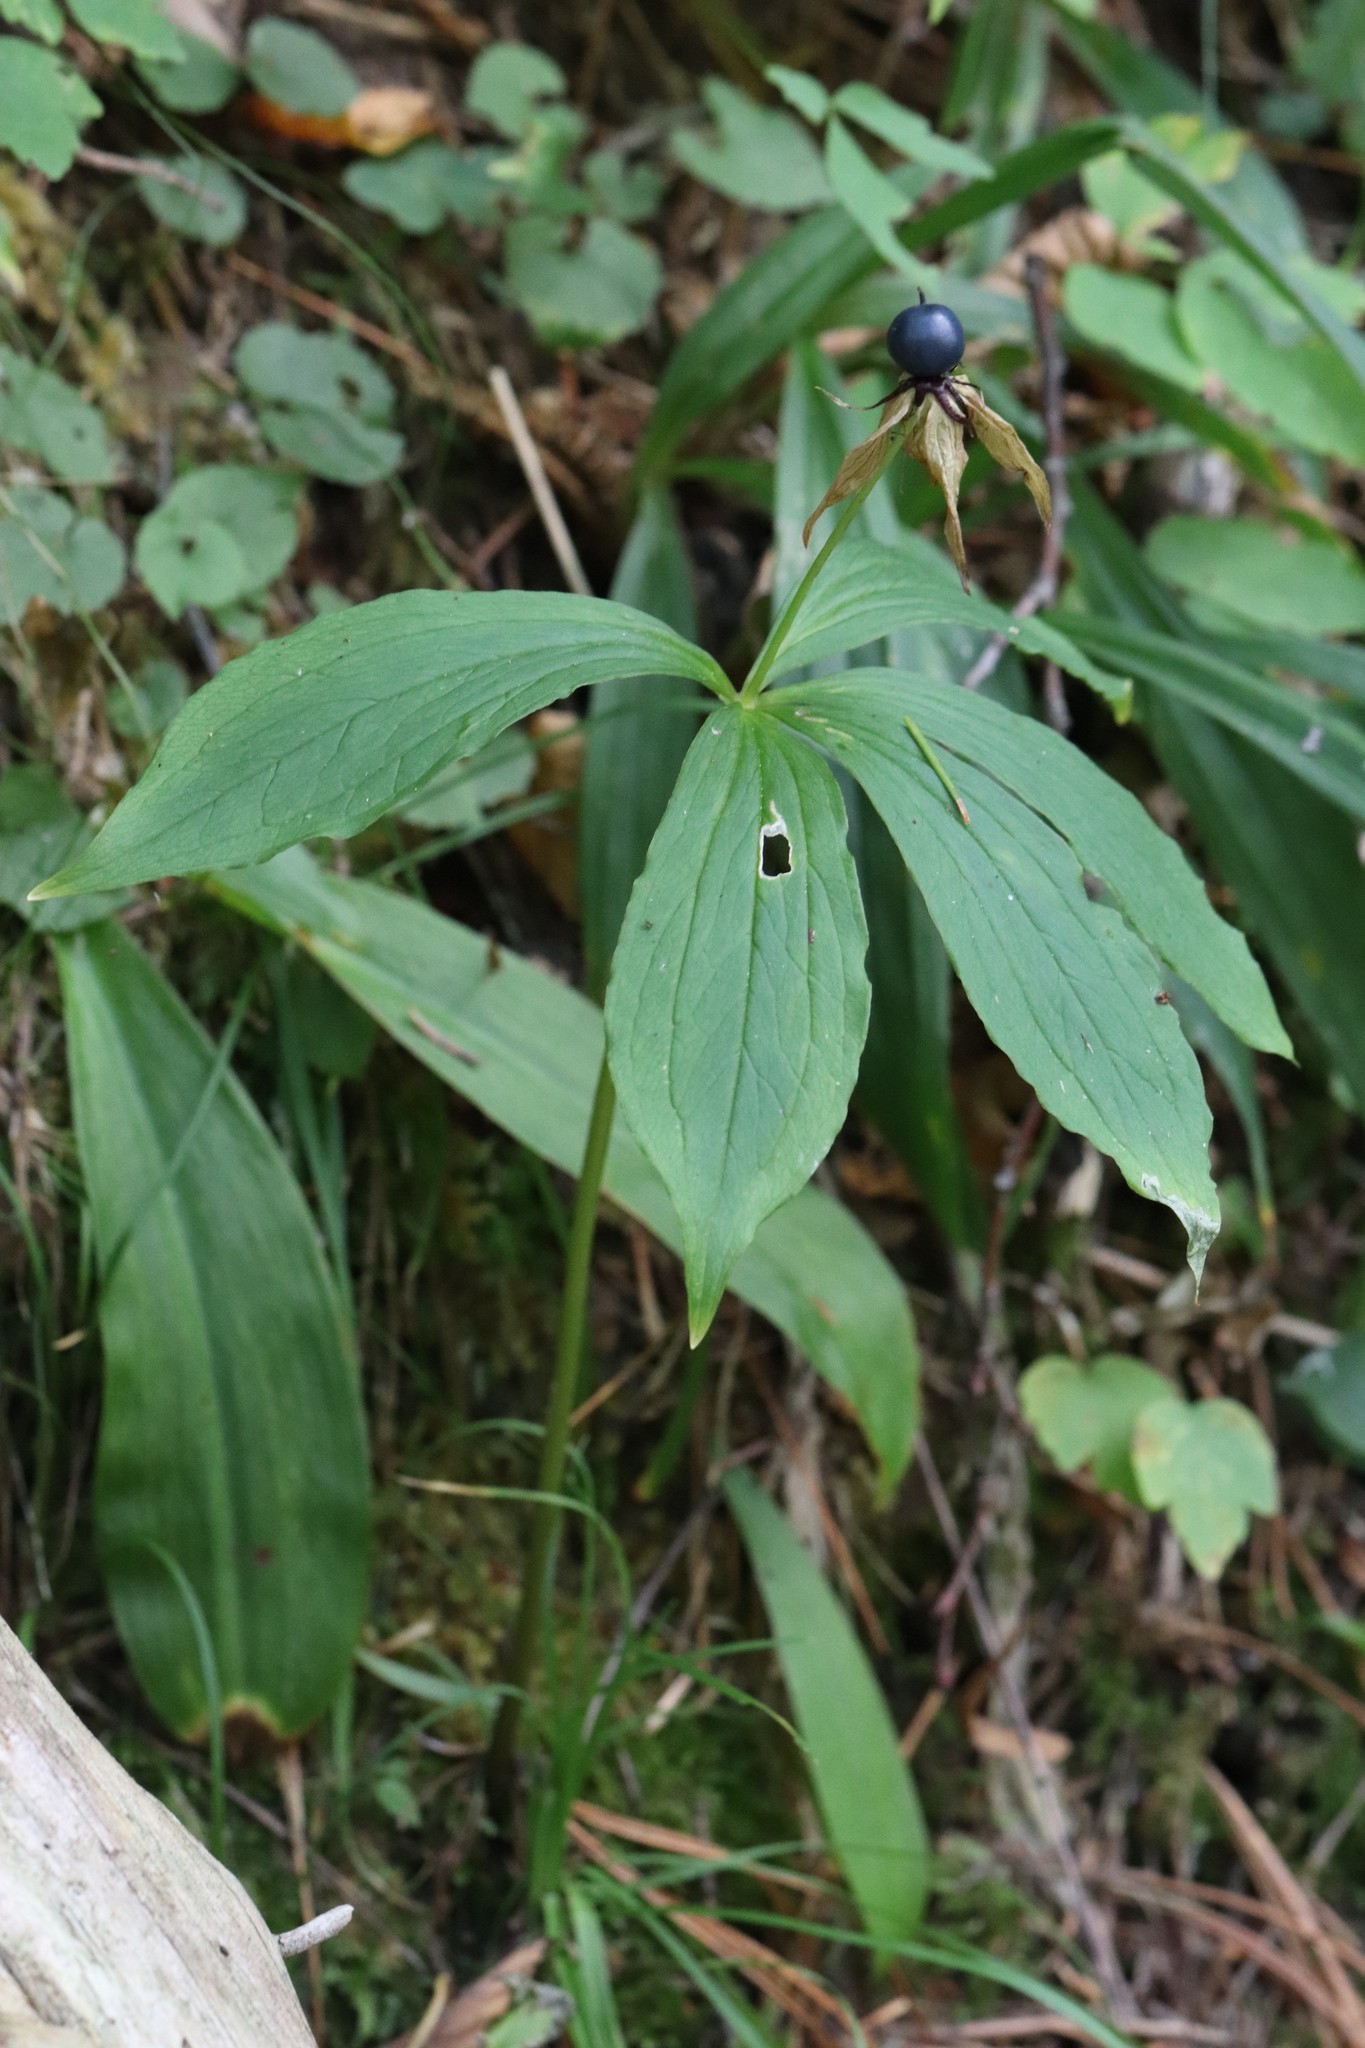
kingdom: Plantae
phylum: Tracheophyta
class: Liliopsida
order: Liliales
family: Melanthiaceae
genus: Paris
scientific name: Paris verticillata
